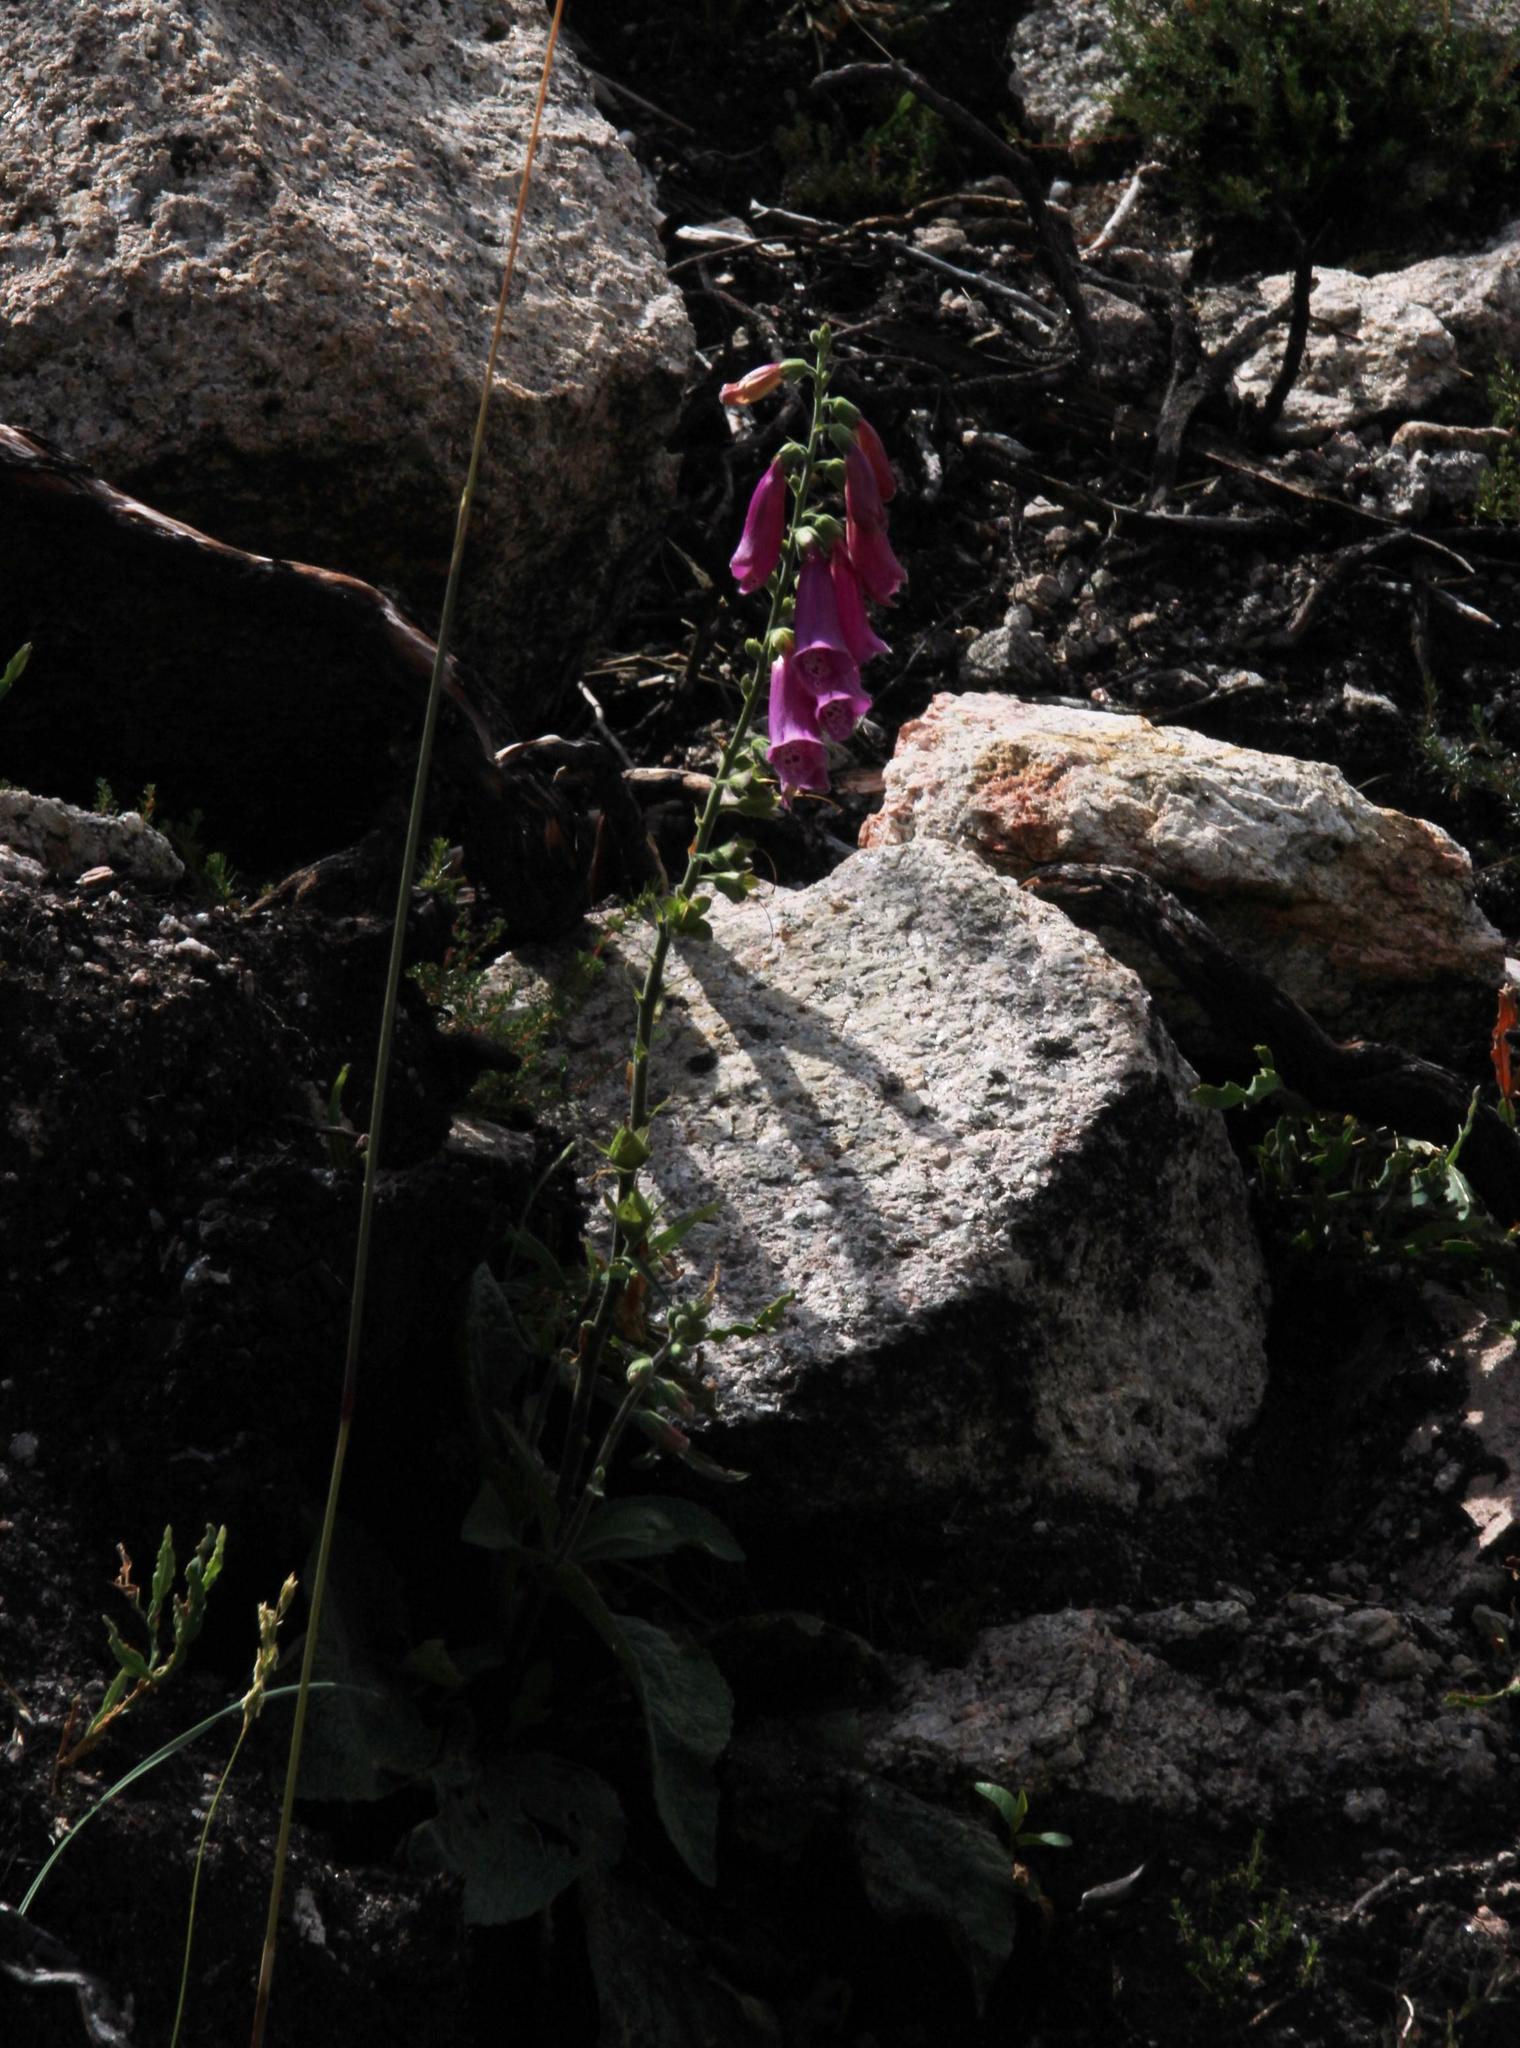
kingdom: Plantae
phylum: Tracheophyta
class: Magnoliopsida
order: Lamiales
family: Plantaginaceae
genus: Digitalis
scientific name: Digitalis purpurea
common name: Foxglove
